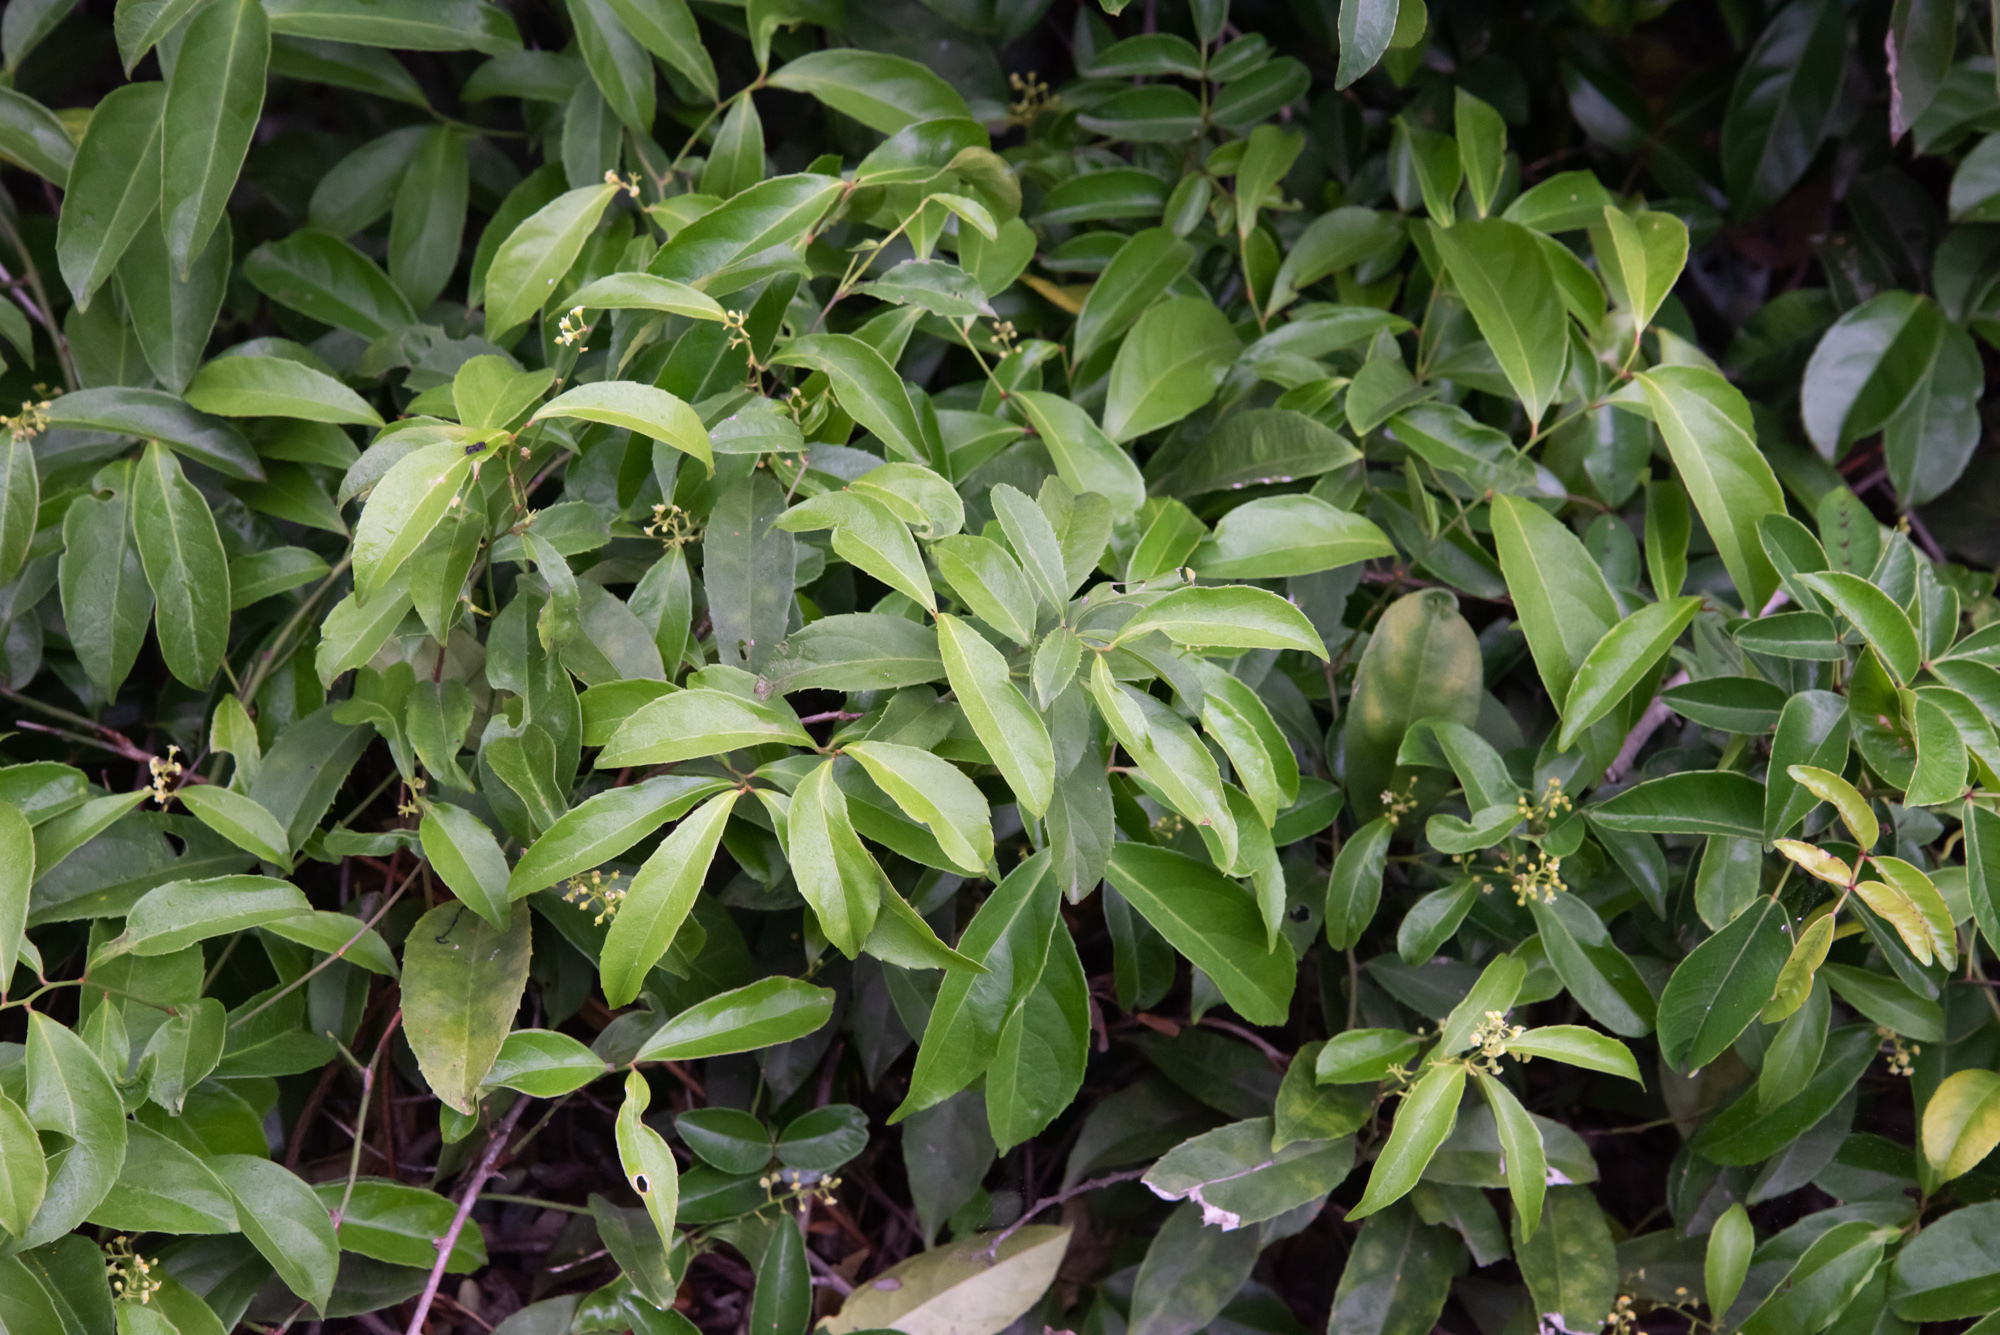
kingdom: Plantae
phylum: Tracheophyta
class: Magnoliopsida
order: Celastrales
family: Celastraceae
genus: Celastrus
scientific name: Celastrus hindsii
